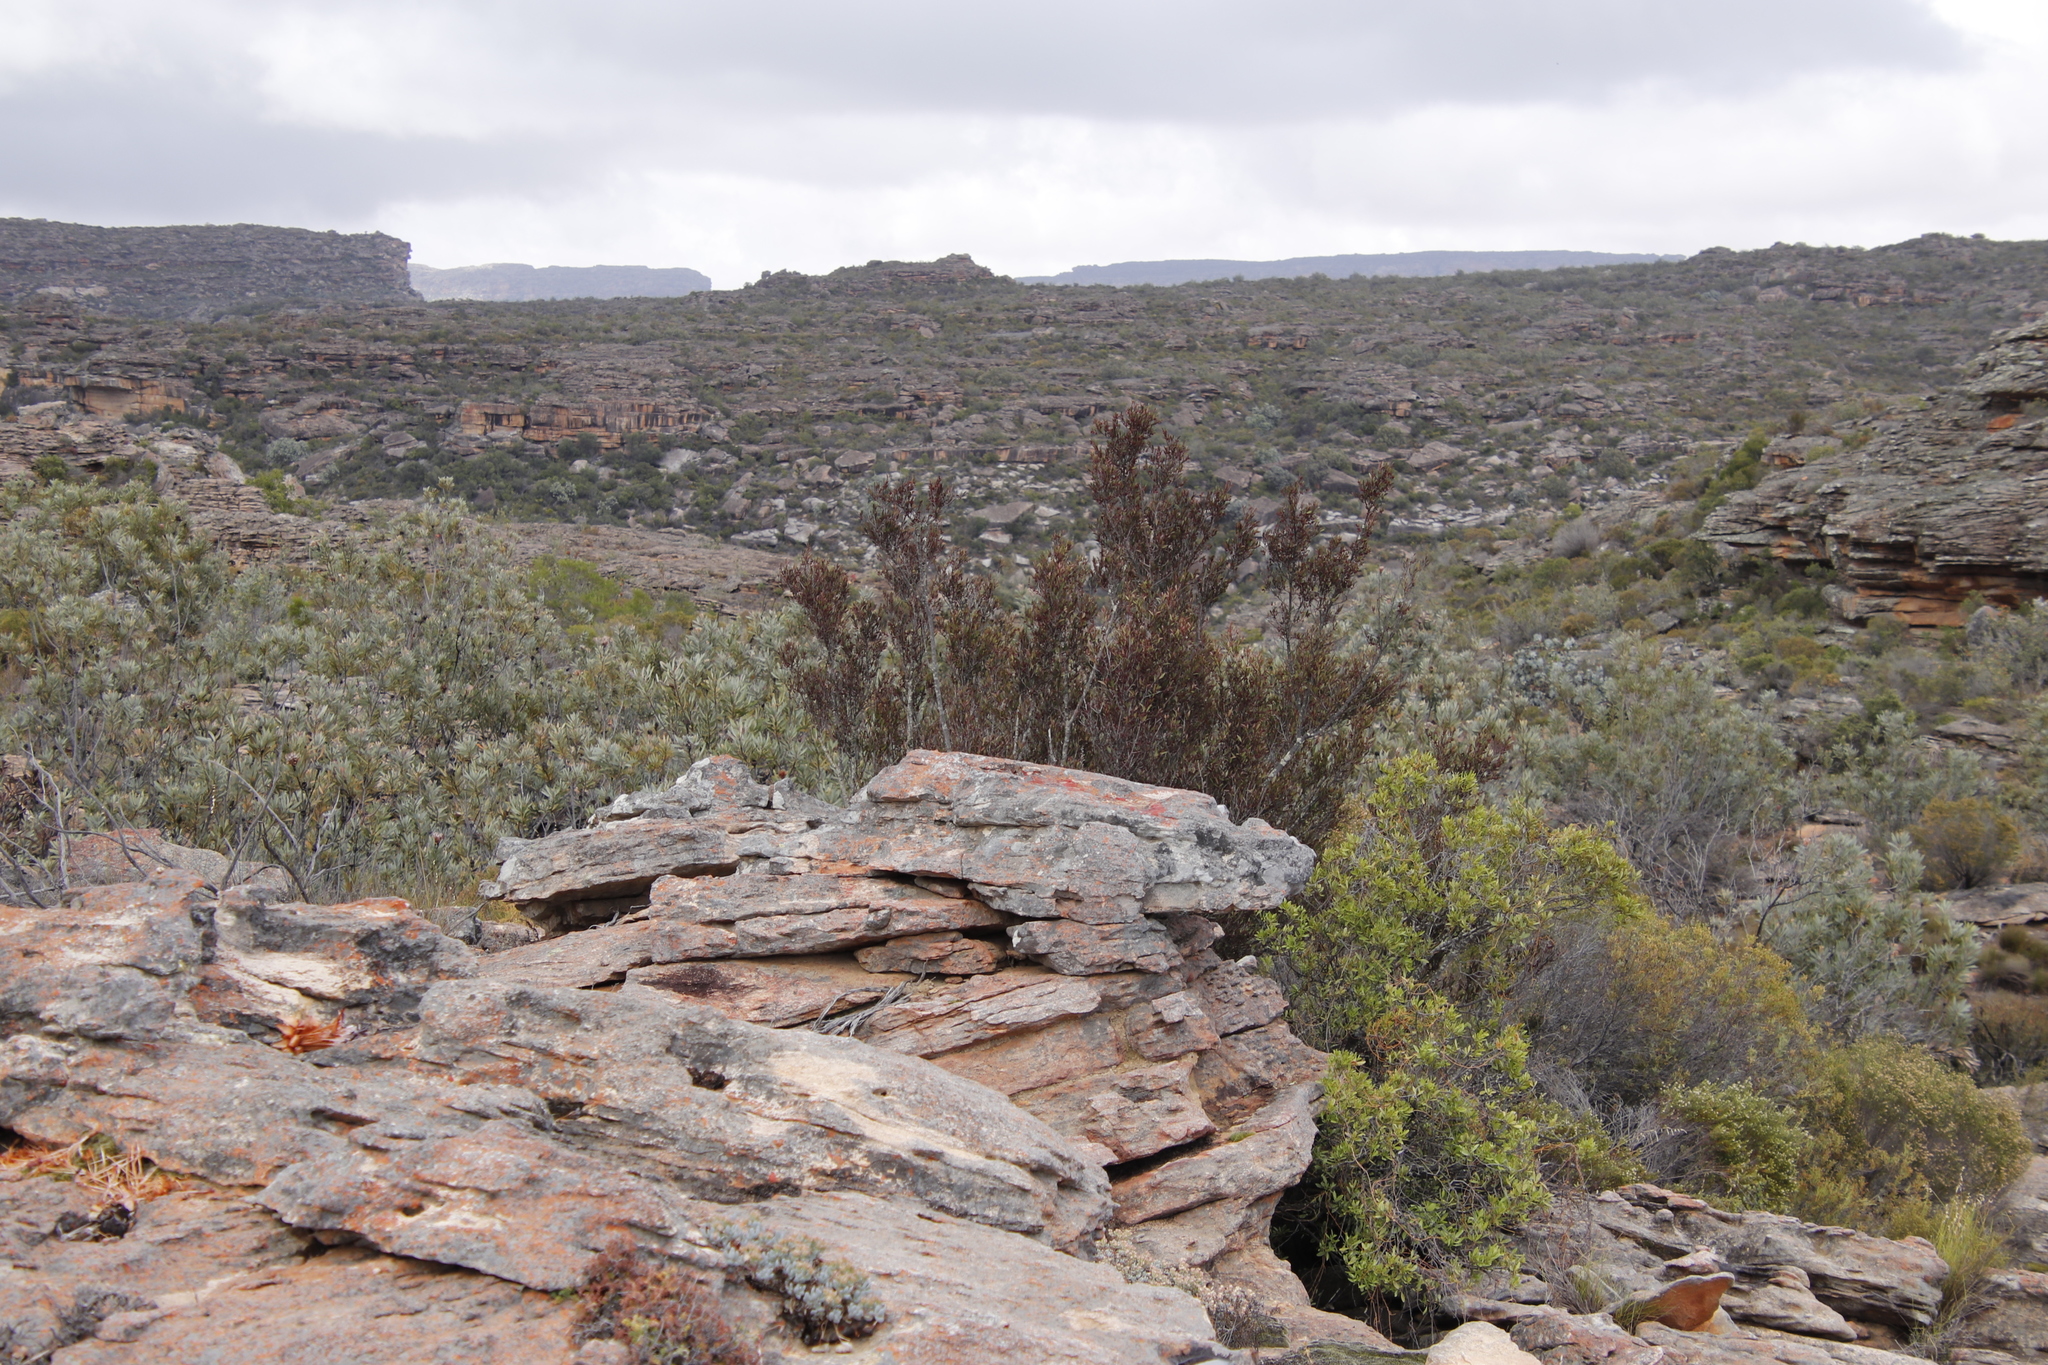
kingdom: Plantae
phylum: Tracheophyta
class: Magnoliopsida
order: Celastrales
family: Celastraceae
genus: Gymnosporia
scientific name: Gymnosporia acuminata
